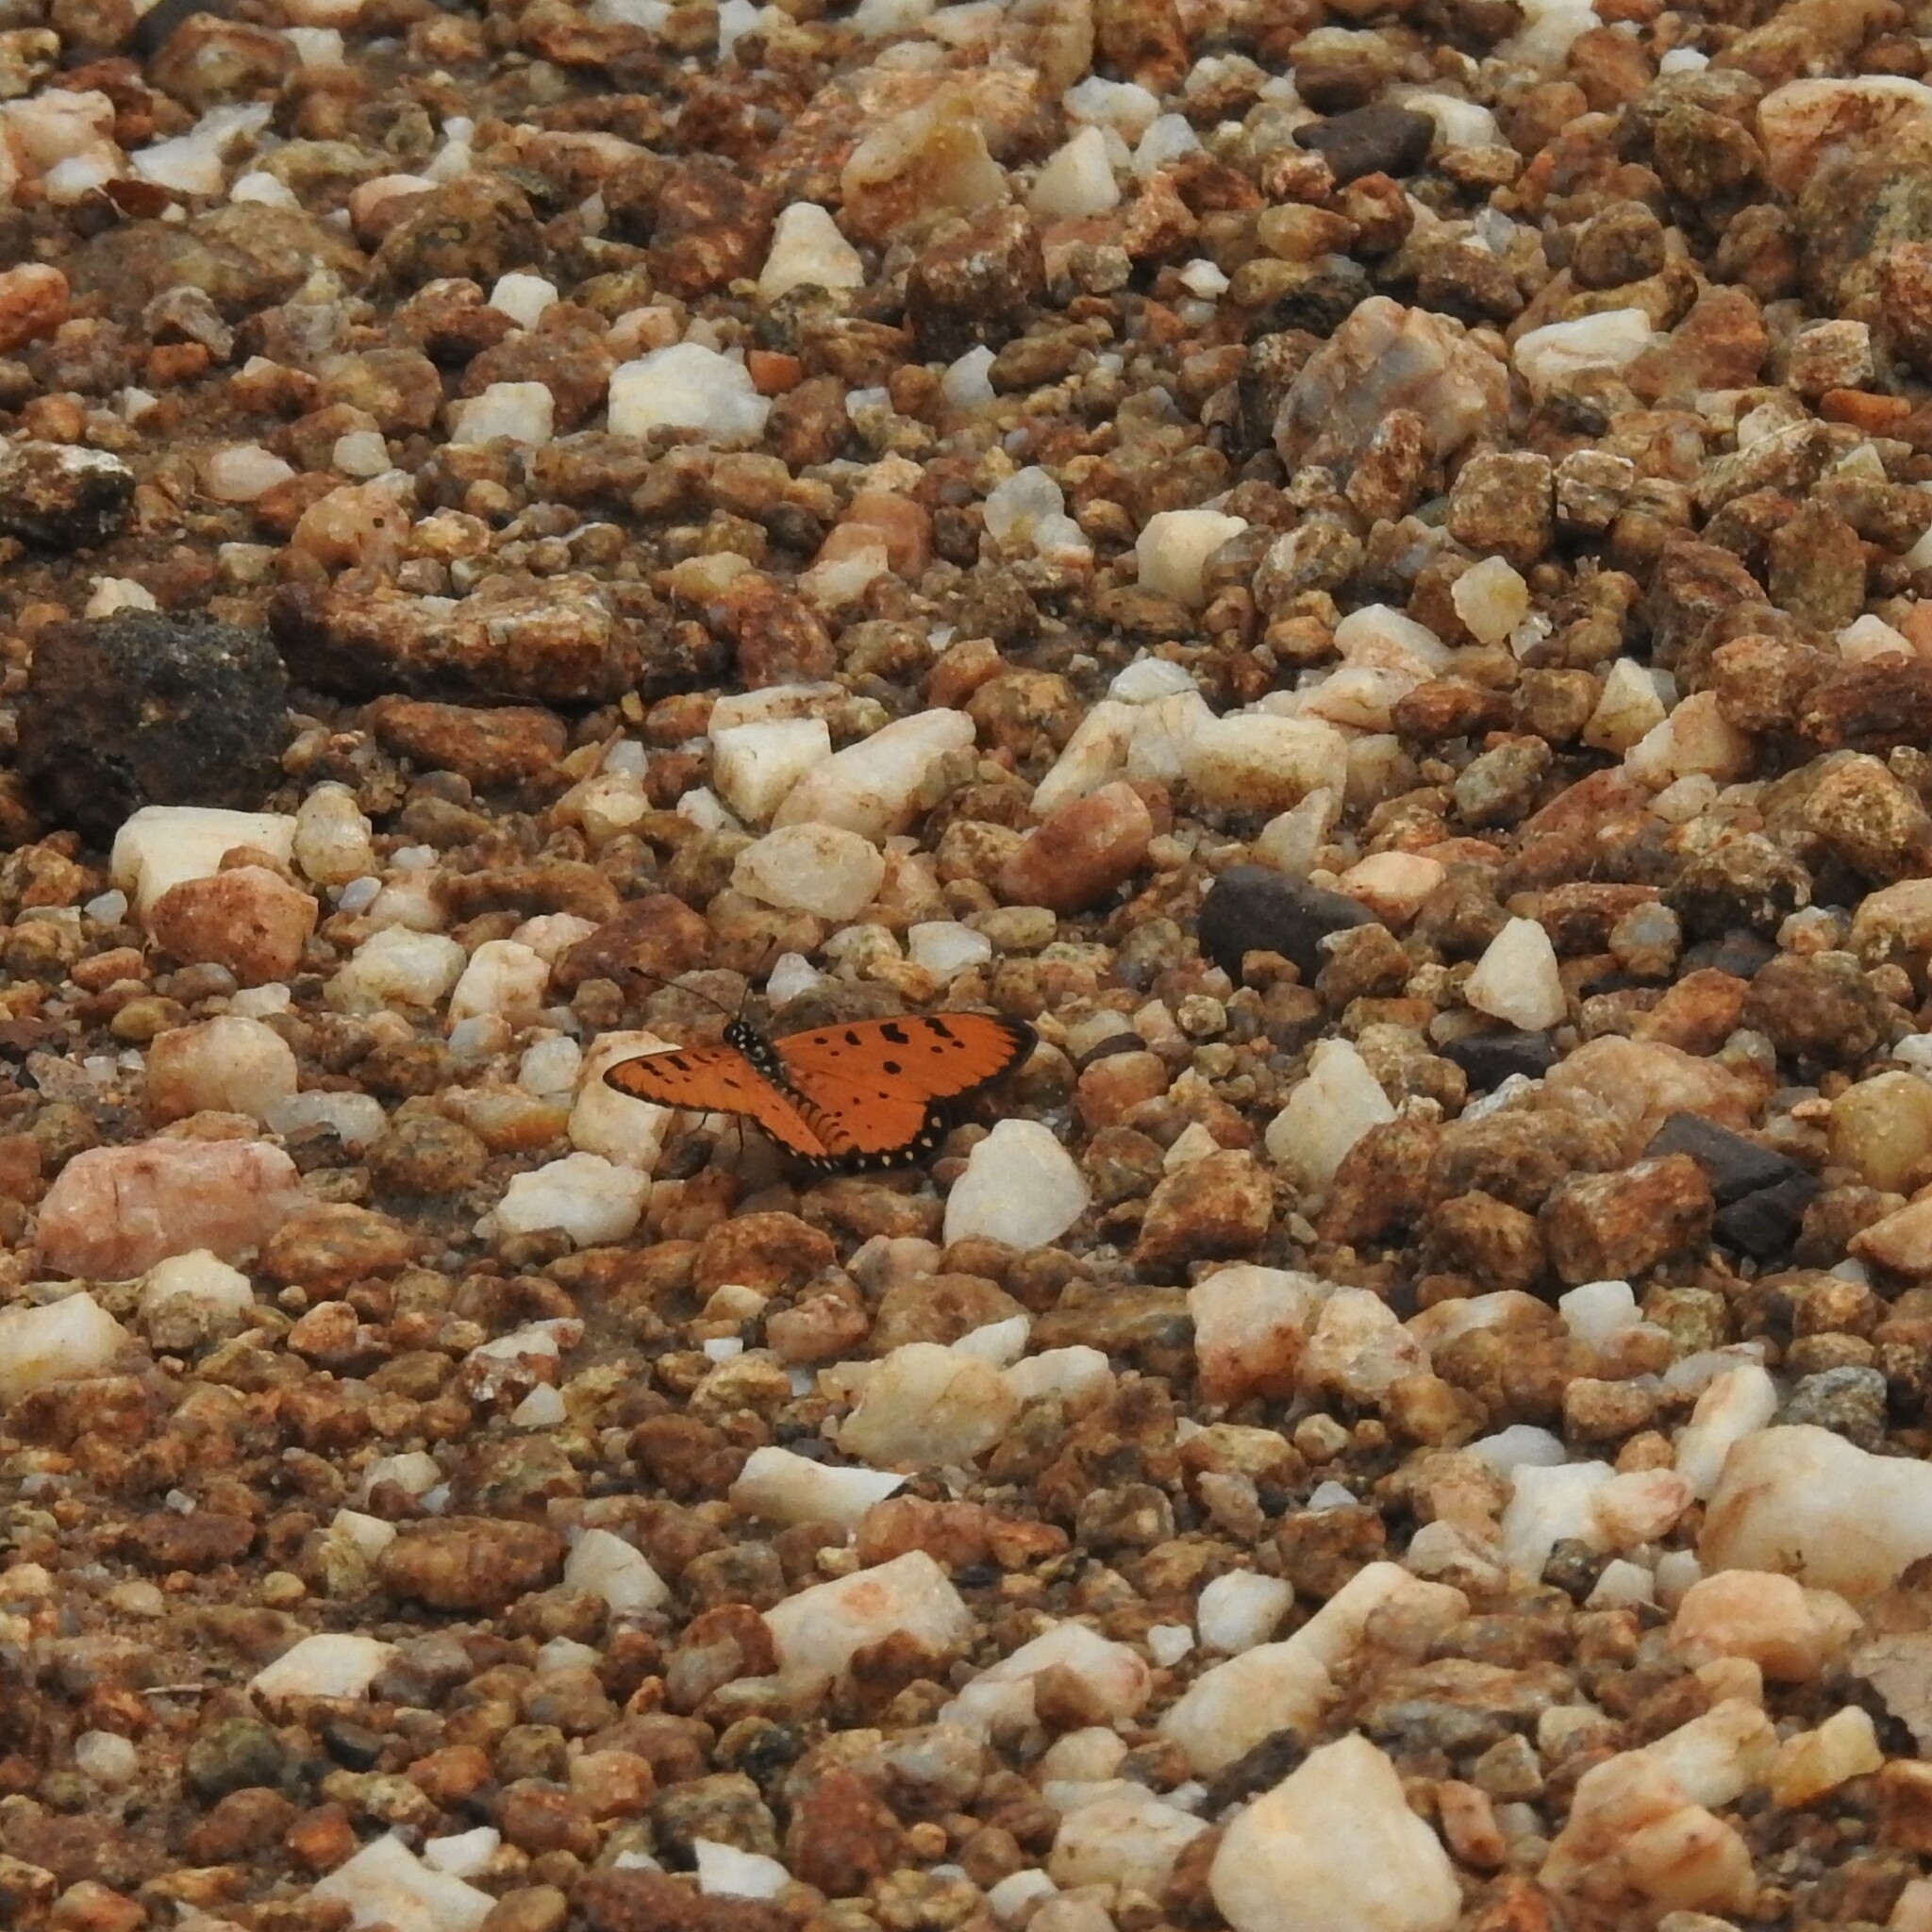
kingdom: Animalia
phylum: Arthropoda
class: Insecta
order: Lepidoptera
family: Nymphalidae
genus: Acraea
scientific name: Acraea terpsicore
